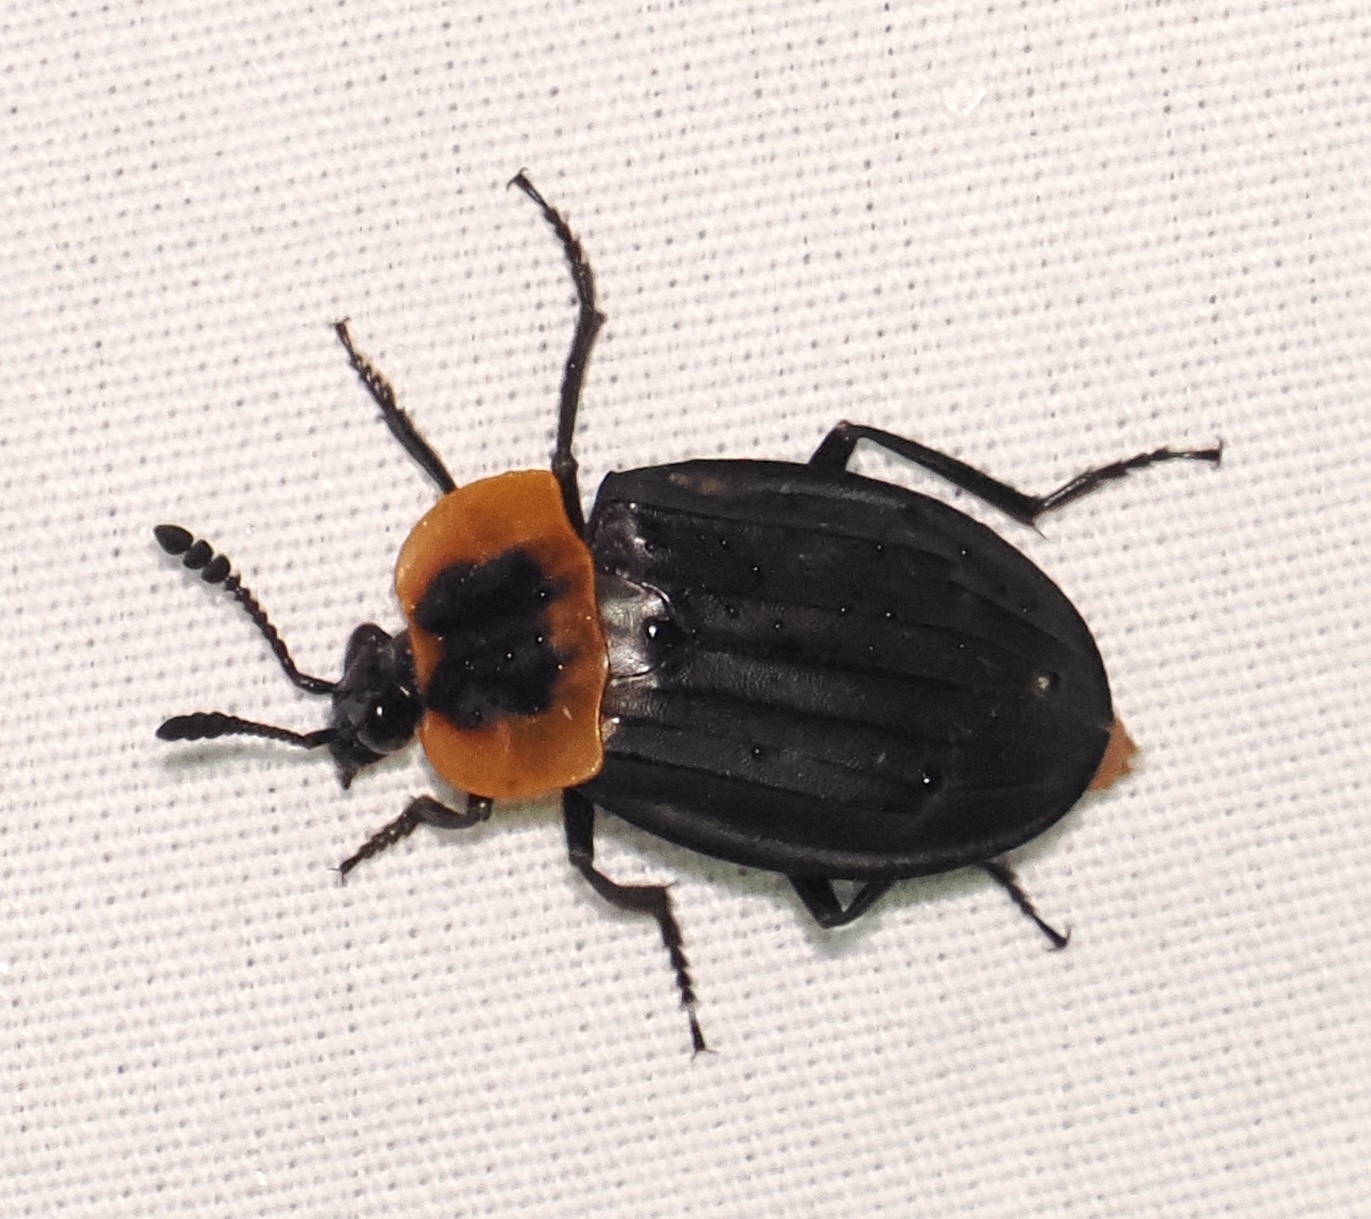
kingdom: Animalia
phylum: Arthropoda
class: Insecta
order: Coleoptera
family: Staphylinidae
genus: Oxelytrum
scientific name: Oxelytrum discicolle
